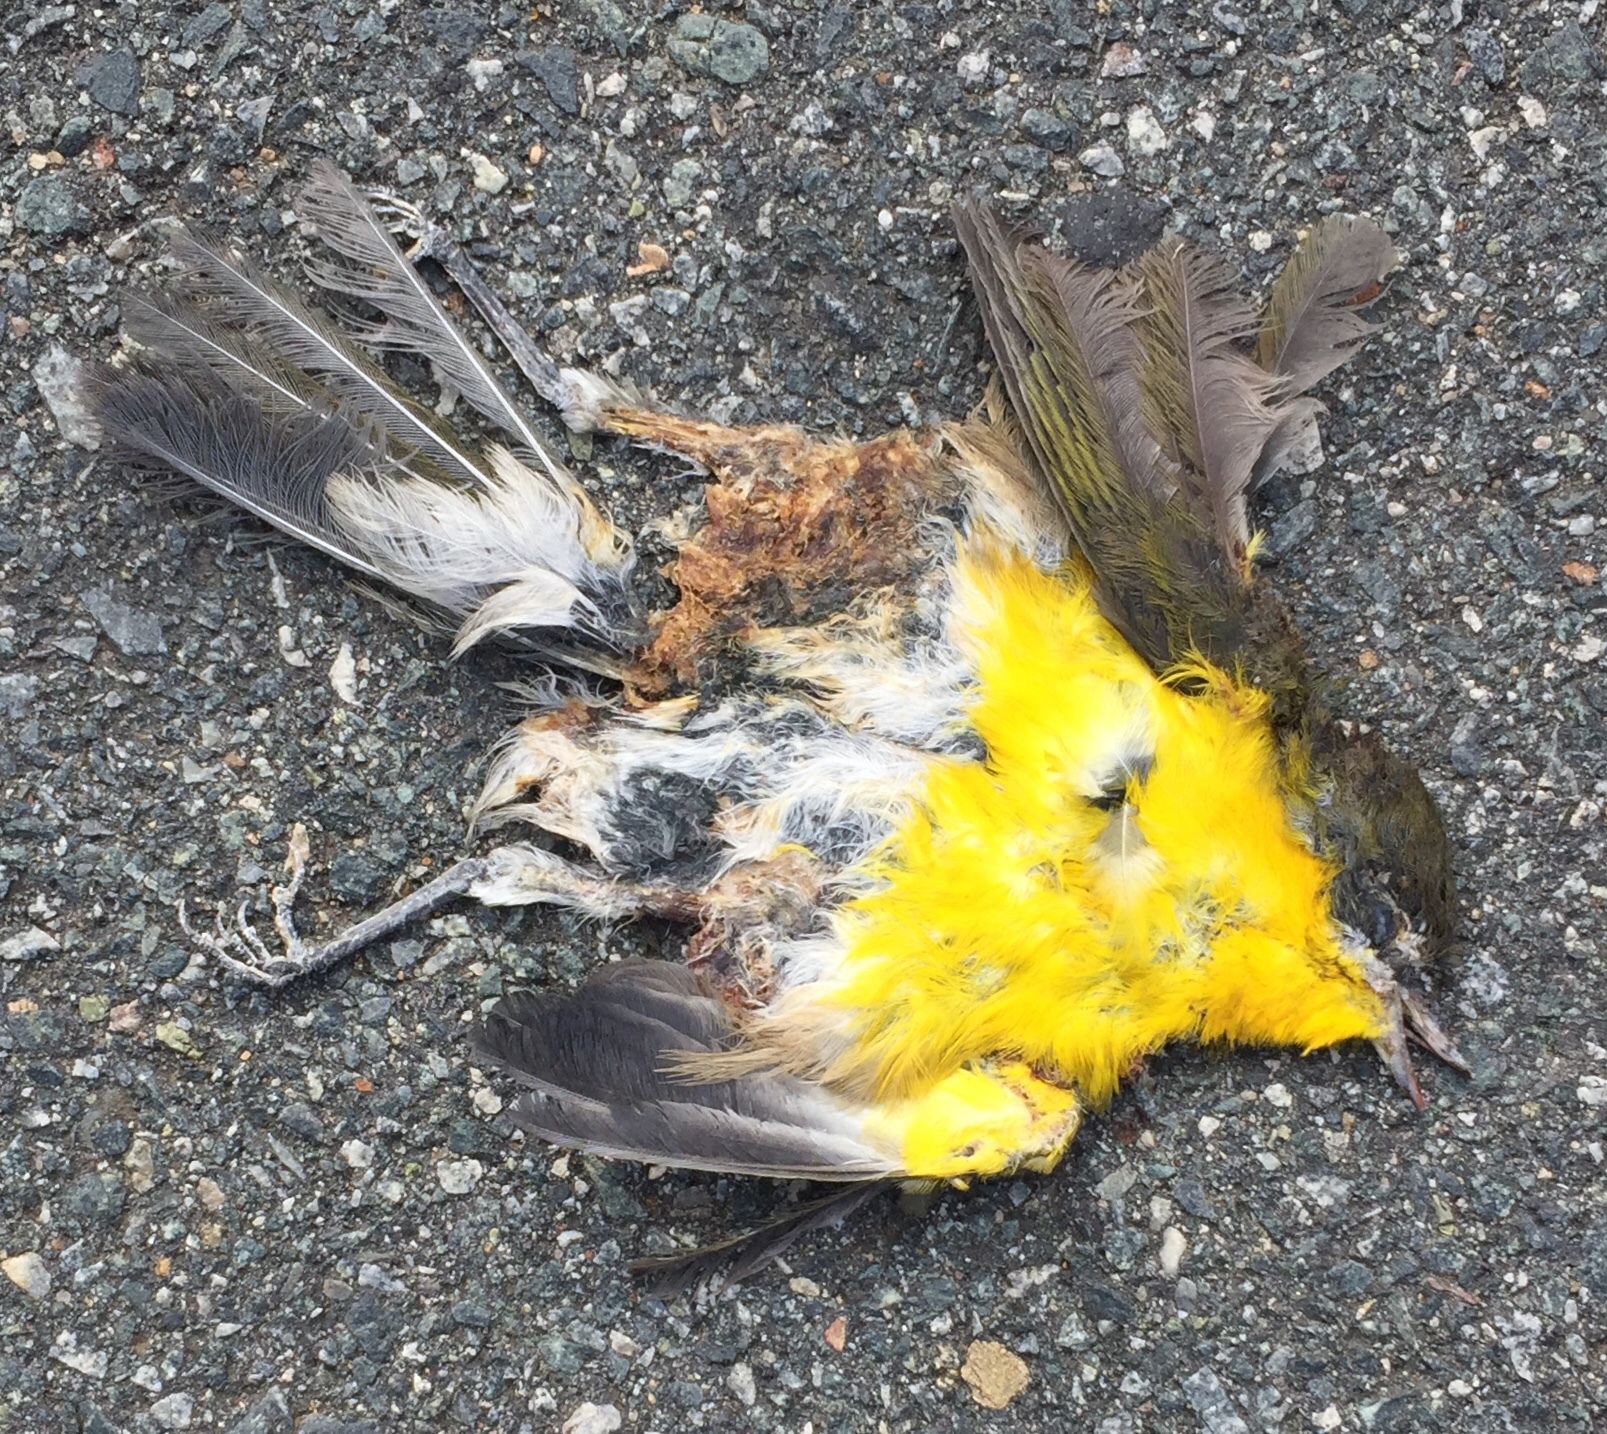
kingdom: Animalia
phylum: Chordata
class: Aves
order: Passeriformes
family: Parulidae
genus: Icteria
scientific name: Icteria virens
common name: Yellow-breasted chat
